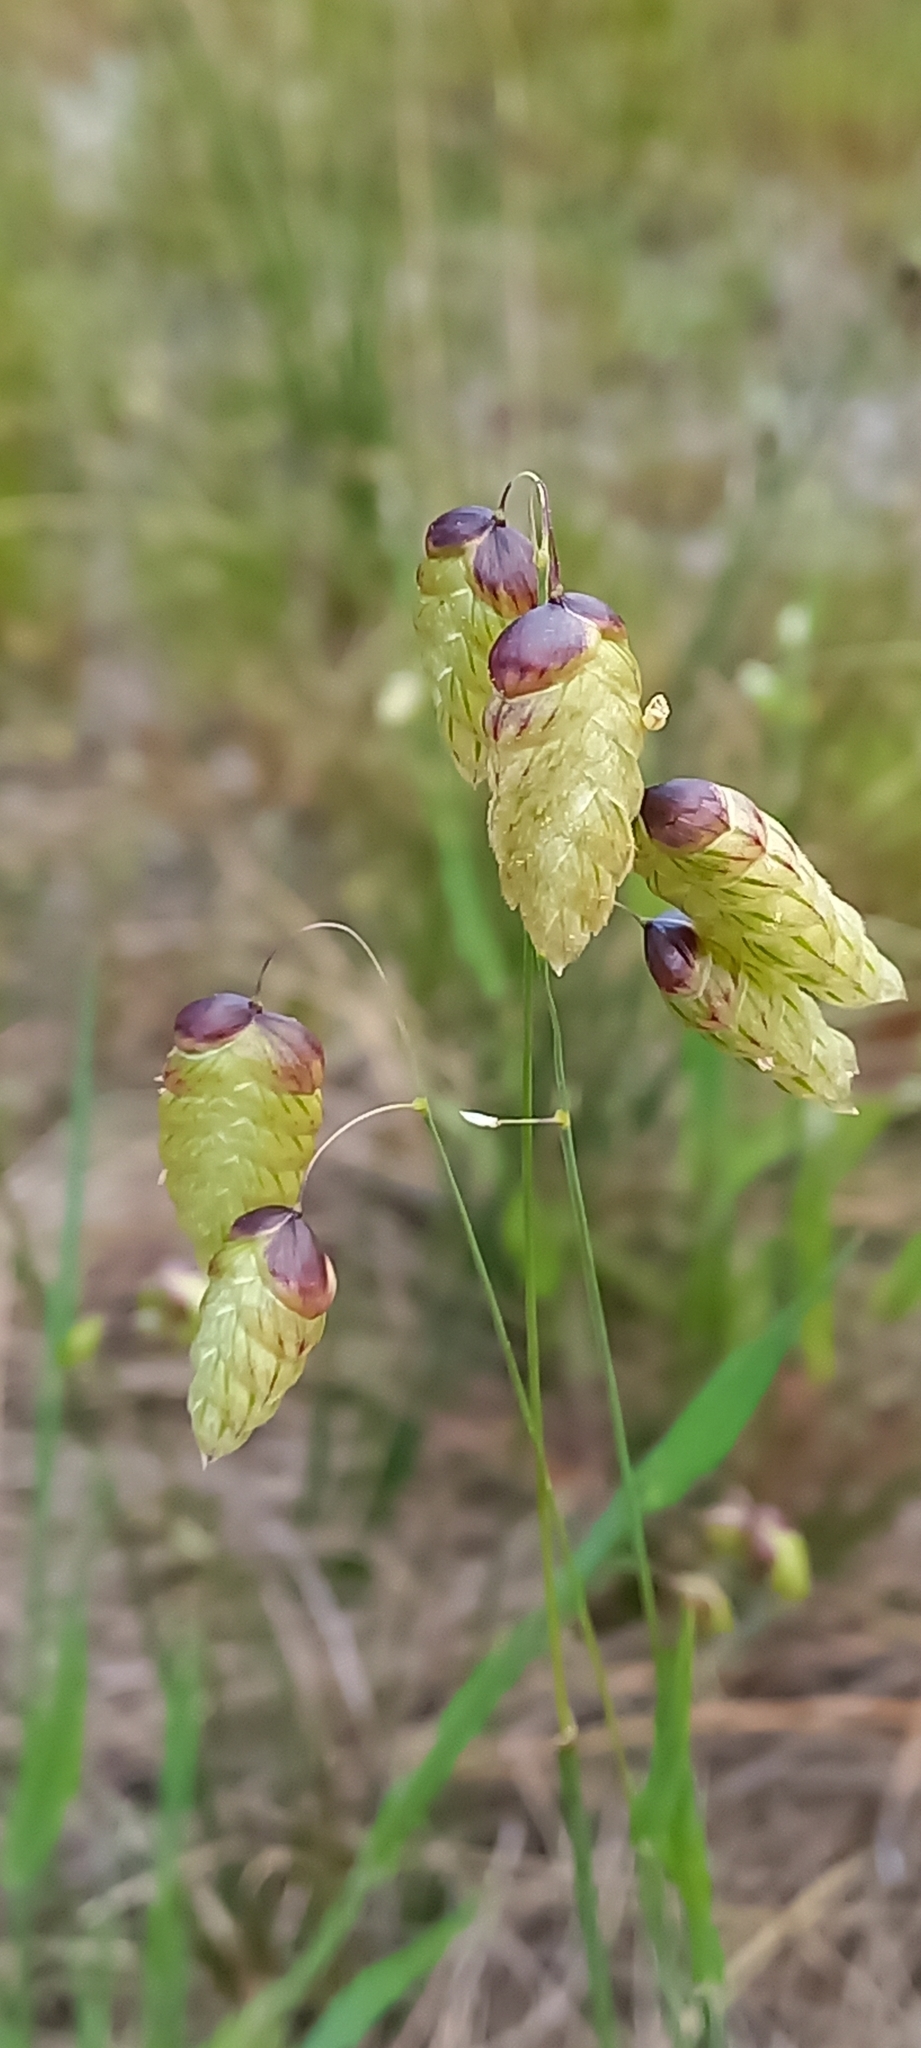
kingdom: Plantae
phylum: Tracheophyta
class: Liliopsida
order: Poales
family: Poaceae
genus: Briza
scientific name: Briza maxima
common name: Big quakinggrass
